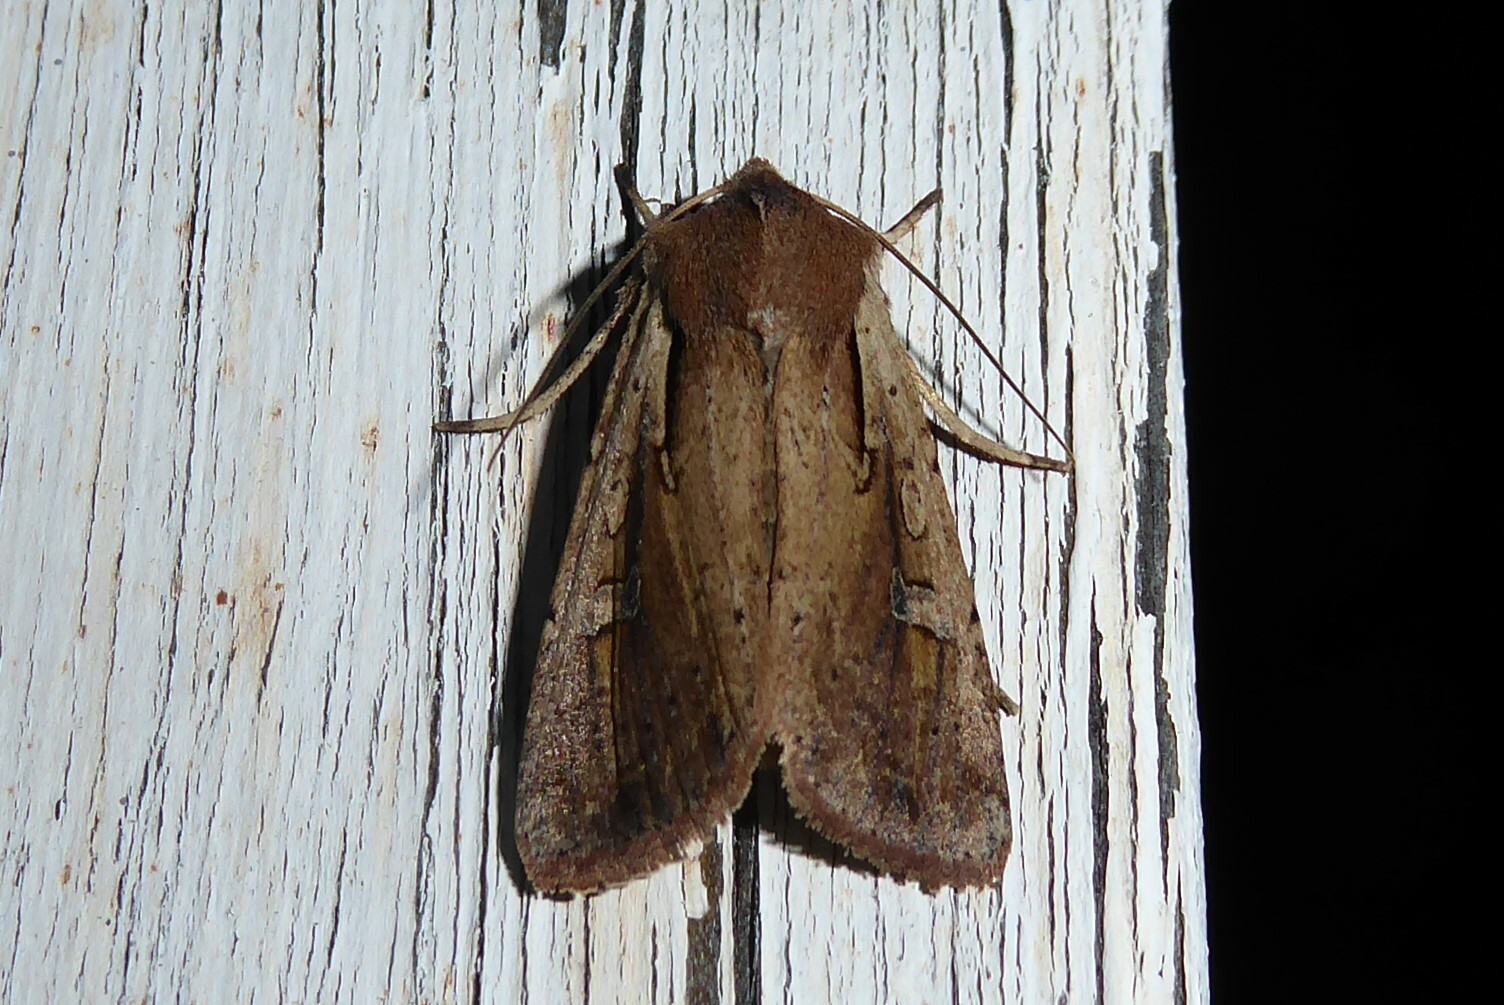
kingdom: Animalia
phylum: Arthropoda
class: Insecta
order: Lepidoptera
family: Noctuidae
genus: Ichneutica
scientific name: Ichneutica atristriga
